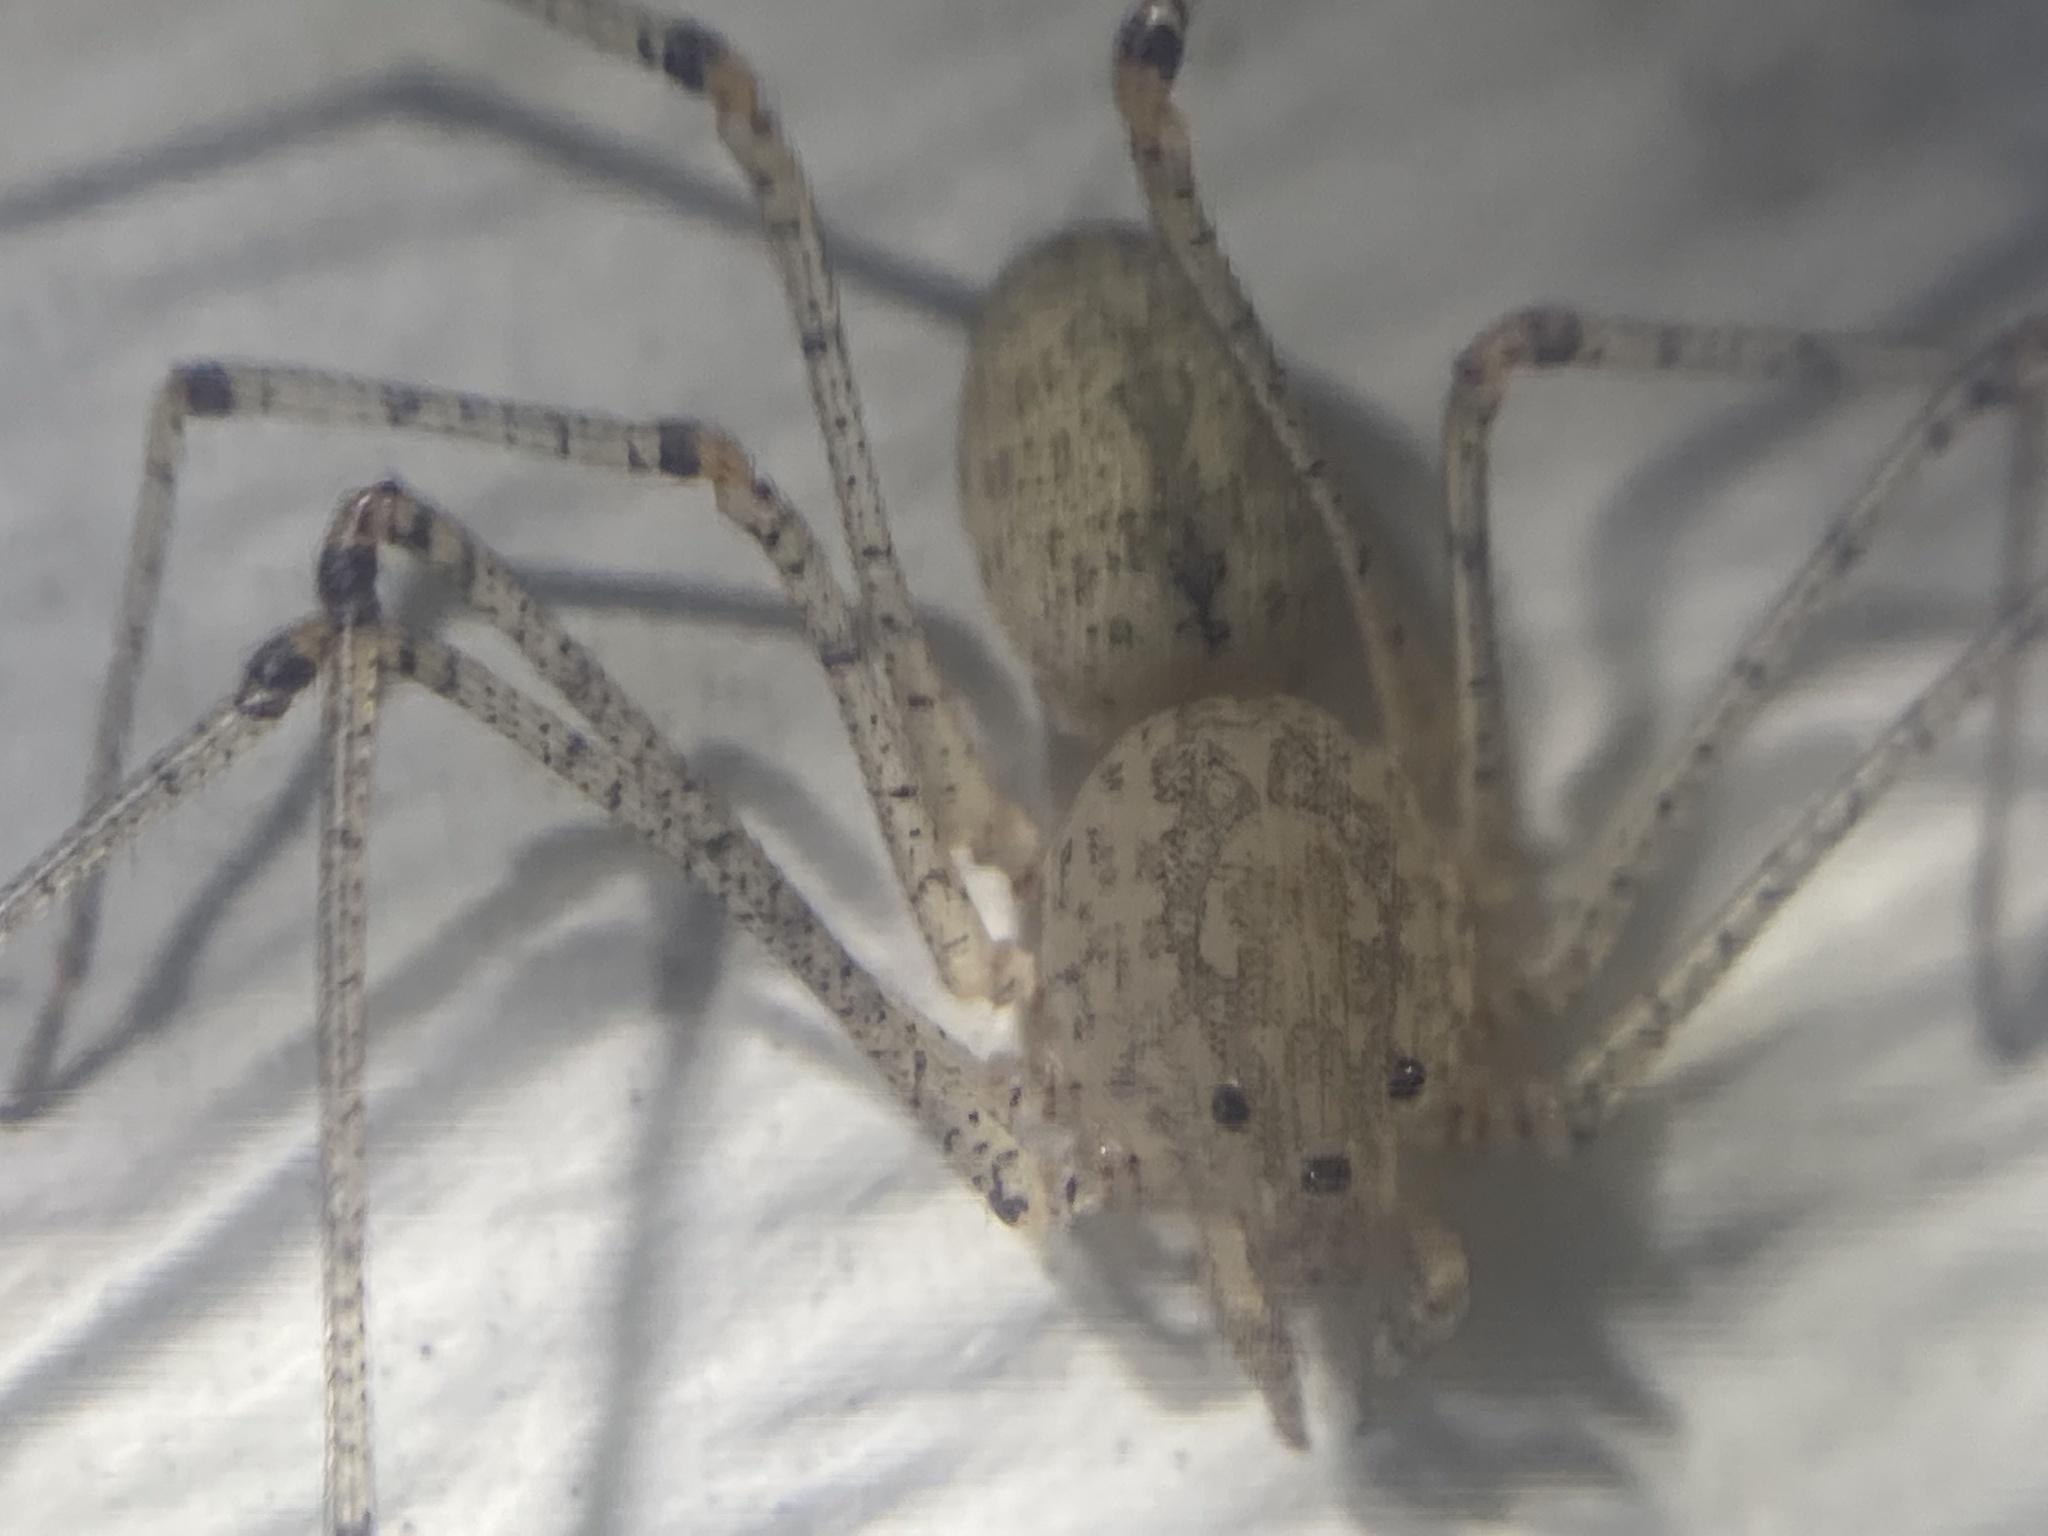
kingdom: Animalia
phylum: Arthropoda
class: Arachnida
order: Araneae
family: Scytodidae
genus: Scytodes
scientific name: Scytodes atlacoya
